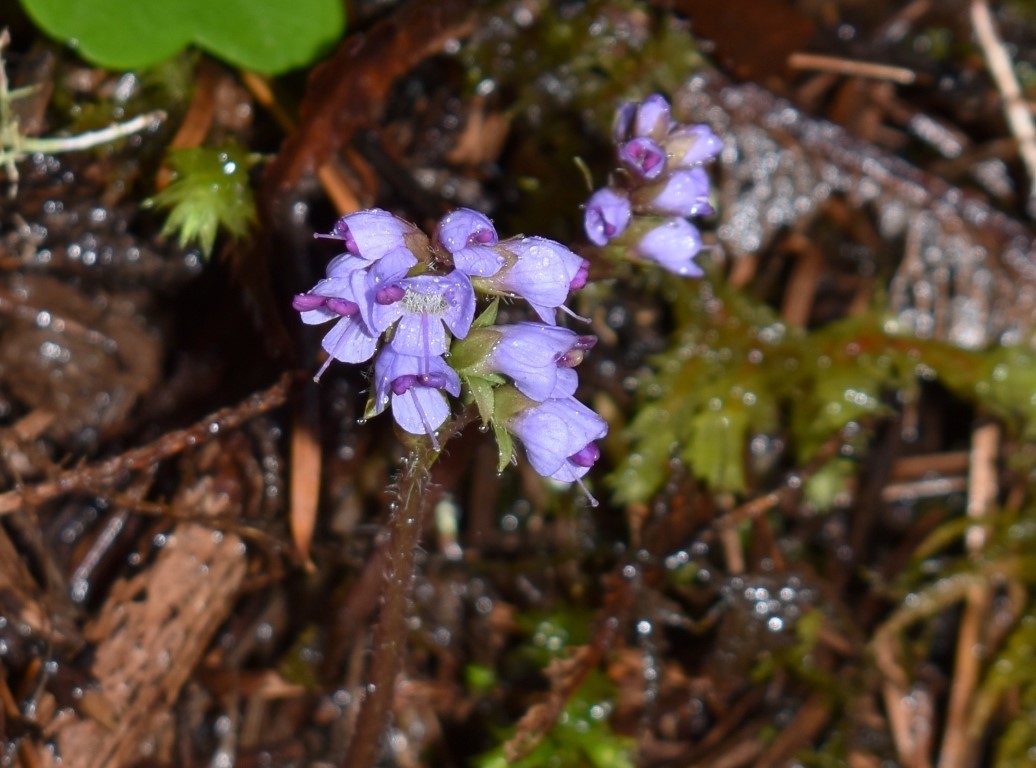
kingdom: Plantae
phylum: Tracheophyta
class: Magnoliopsida
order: Lamiales
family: Plantaginaceae
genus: Synthyris
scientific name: Synthyris reniformis
